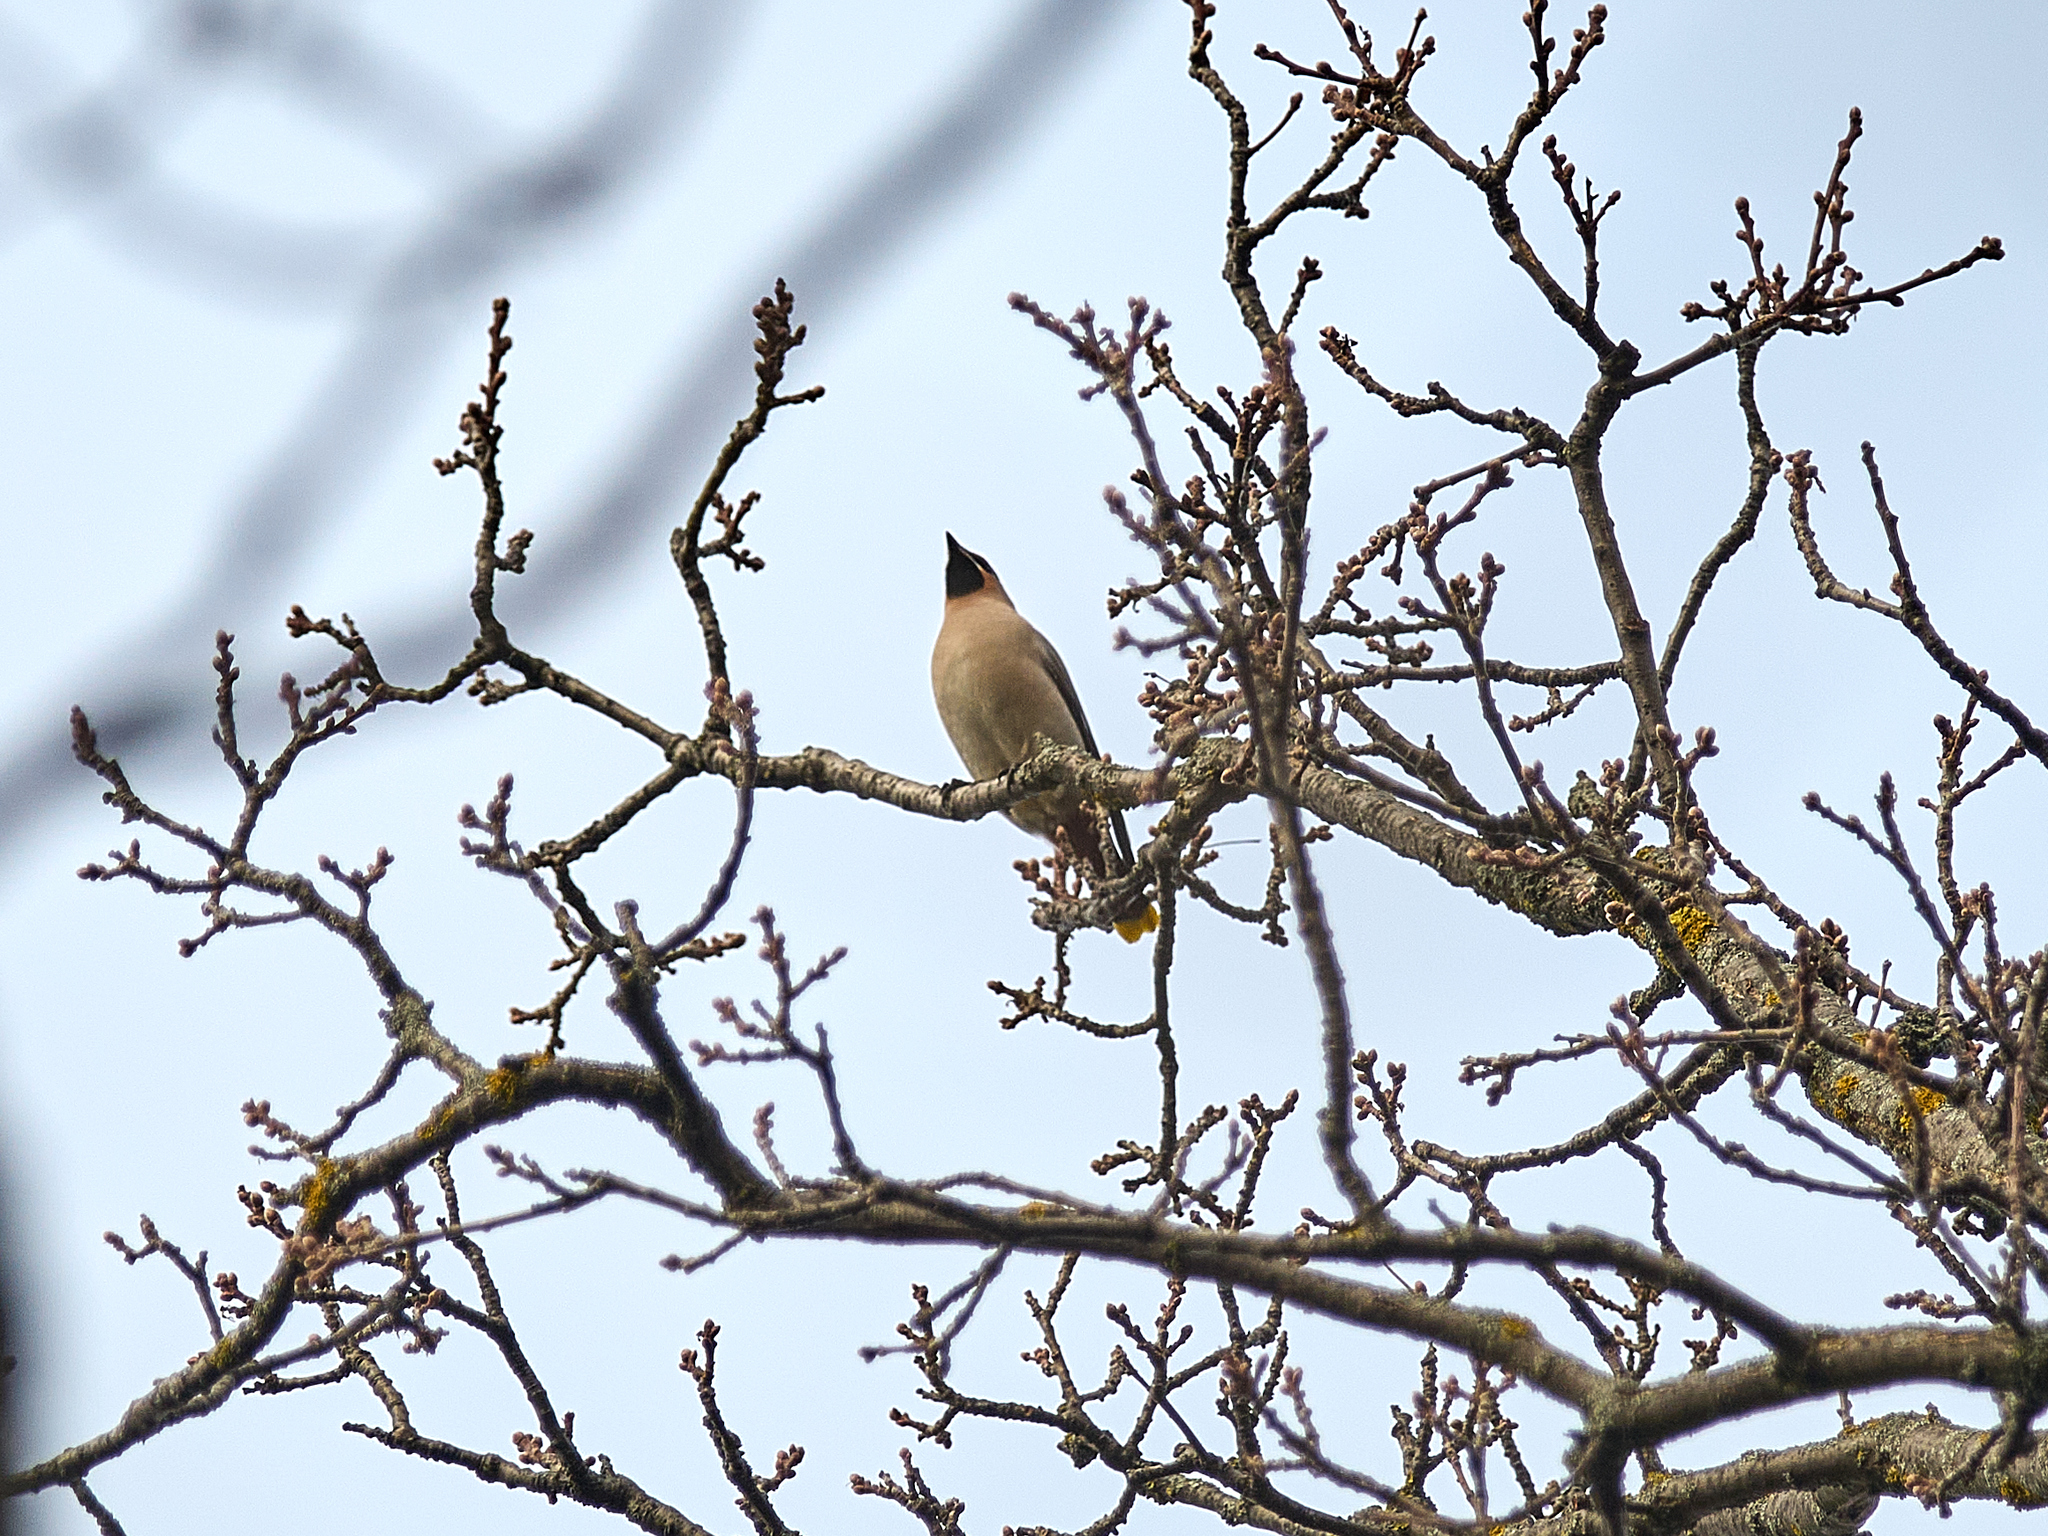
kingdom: Animalia
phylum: Chordata
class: Aves
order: Passeriformes
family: Bombycillidae
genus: Bombycilla
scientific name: Bombycilla garrulus
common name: Bohemian waxwing
